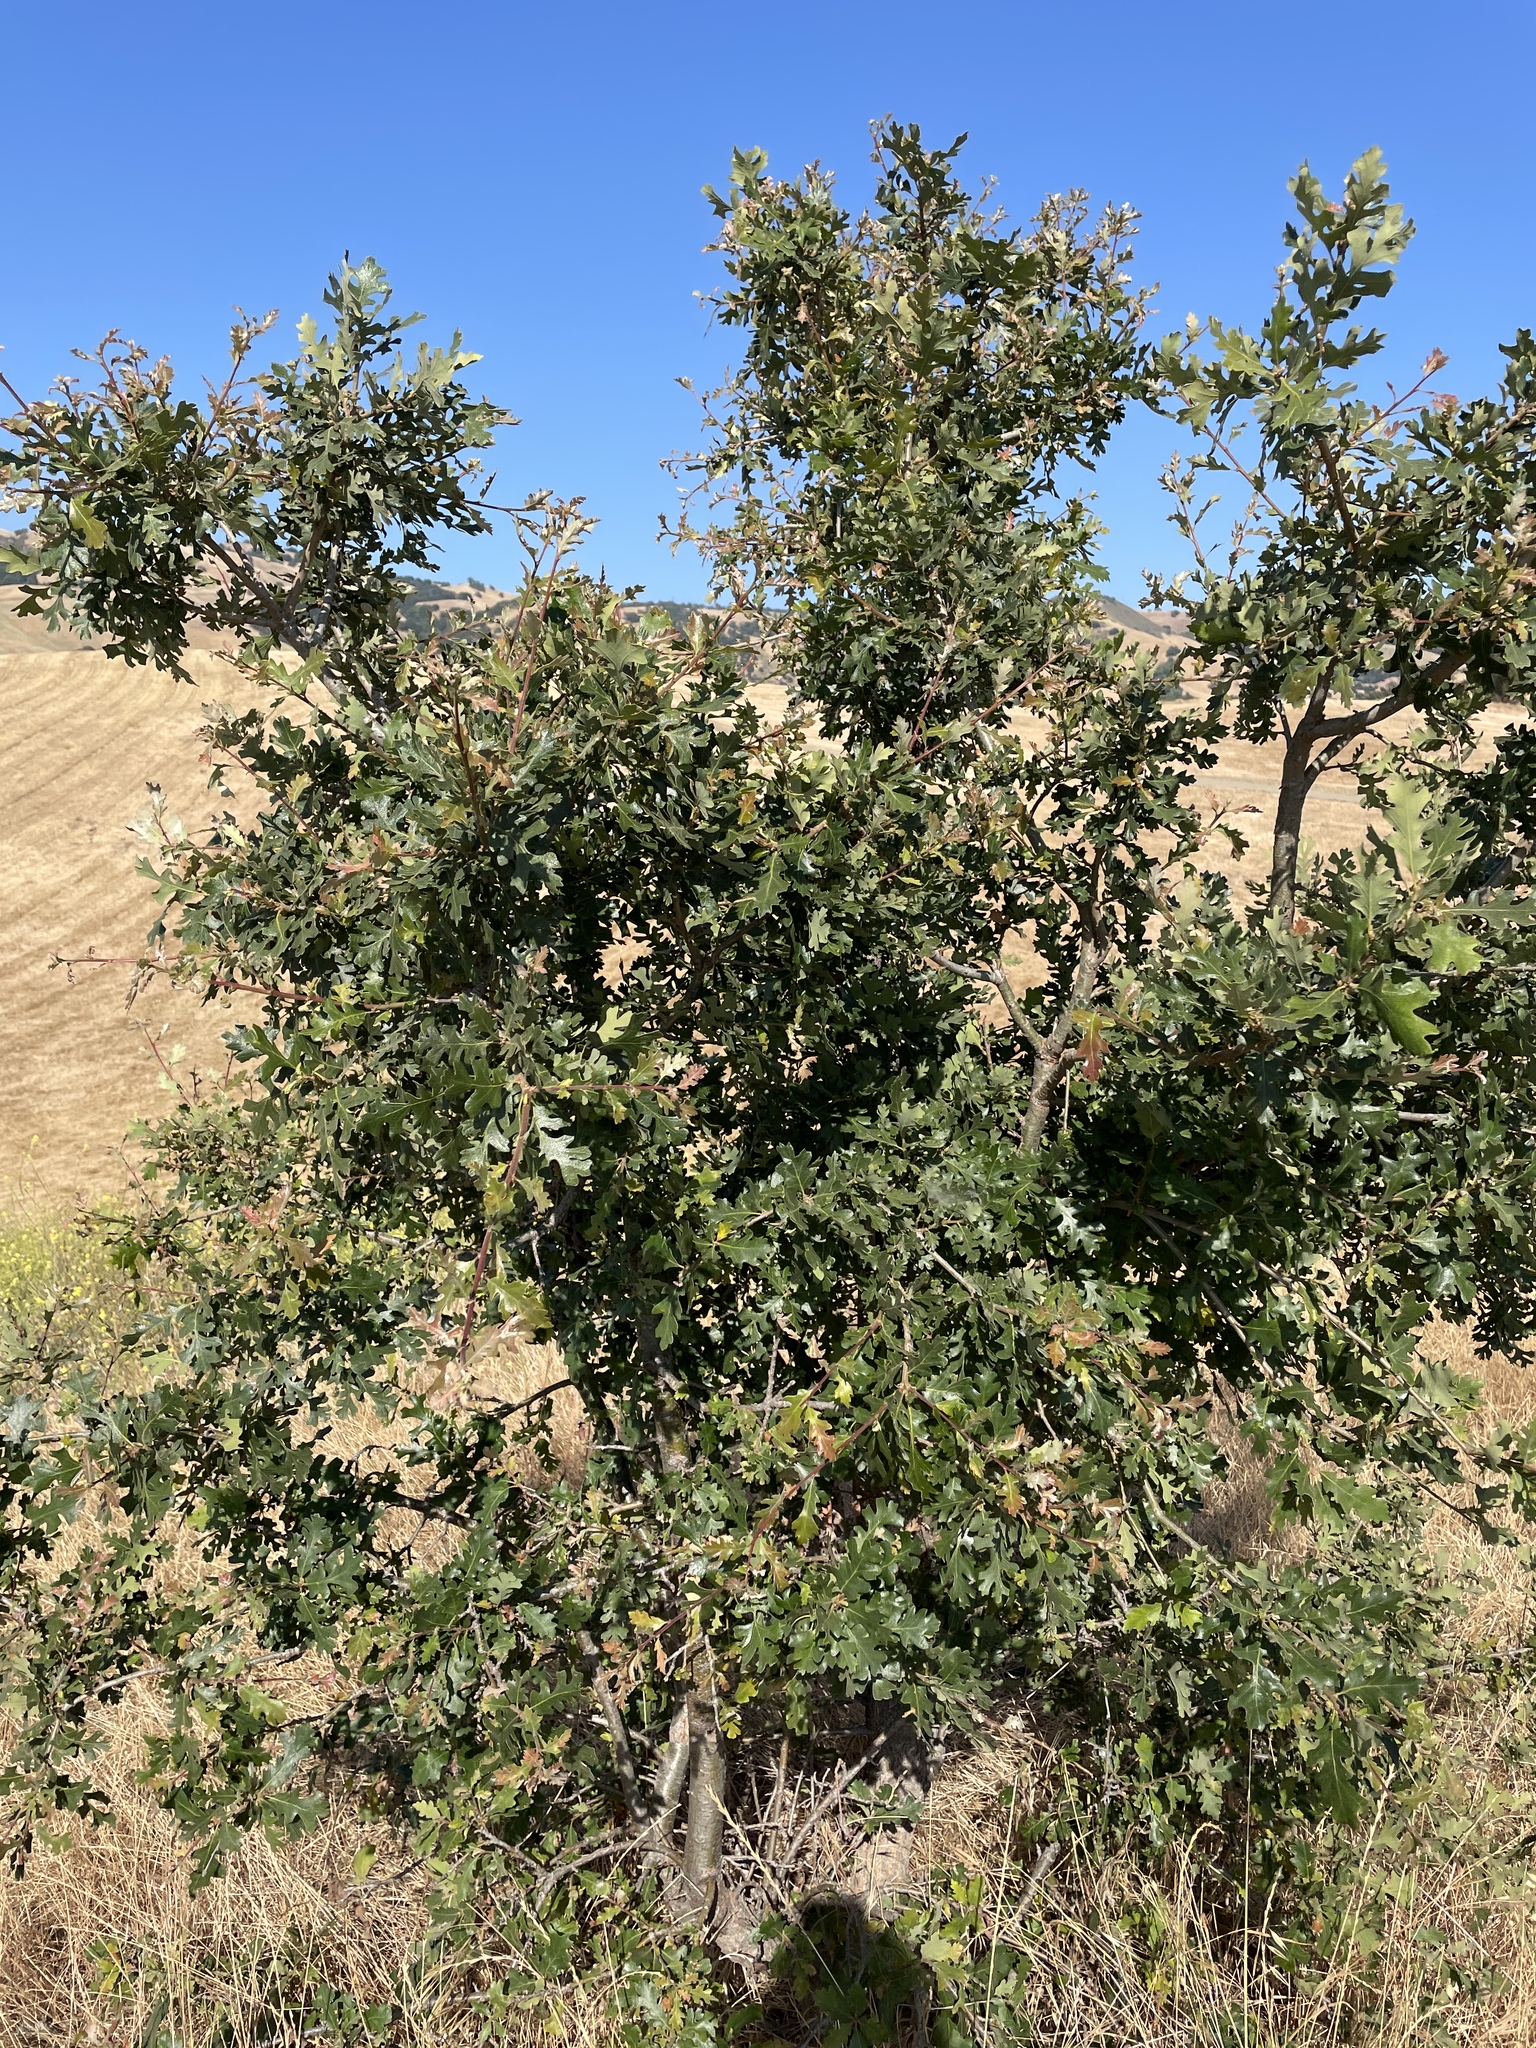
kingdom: Plantae
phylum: Tracheophyta
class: Magnoliopsida
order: Fagales
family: Fagaceae
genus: Quercus
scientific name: Quercus lobata
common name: Valley oak
